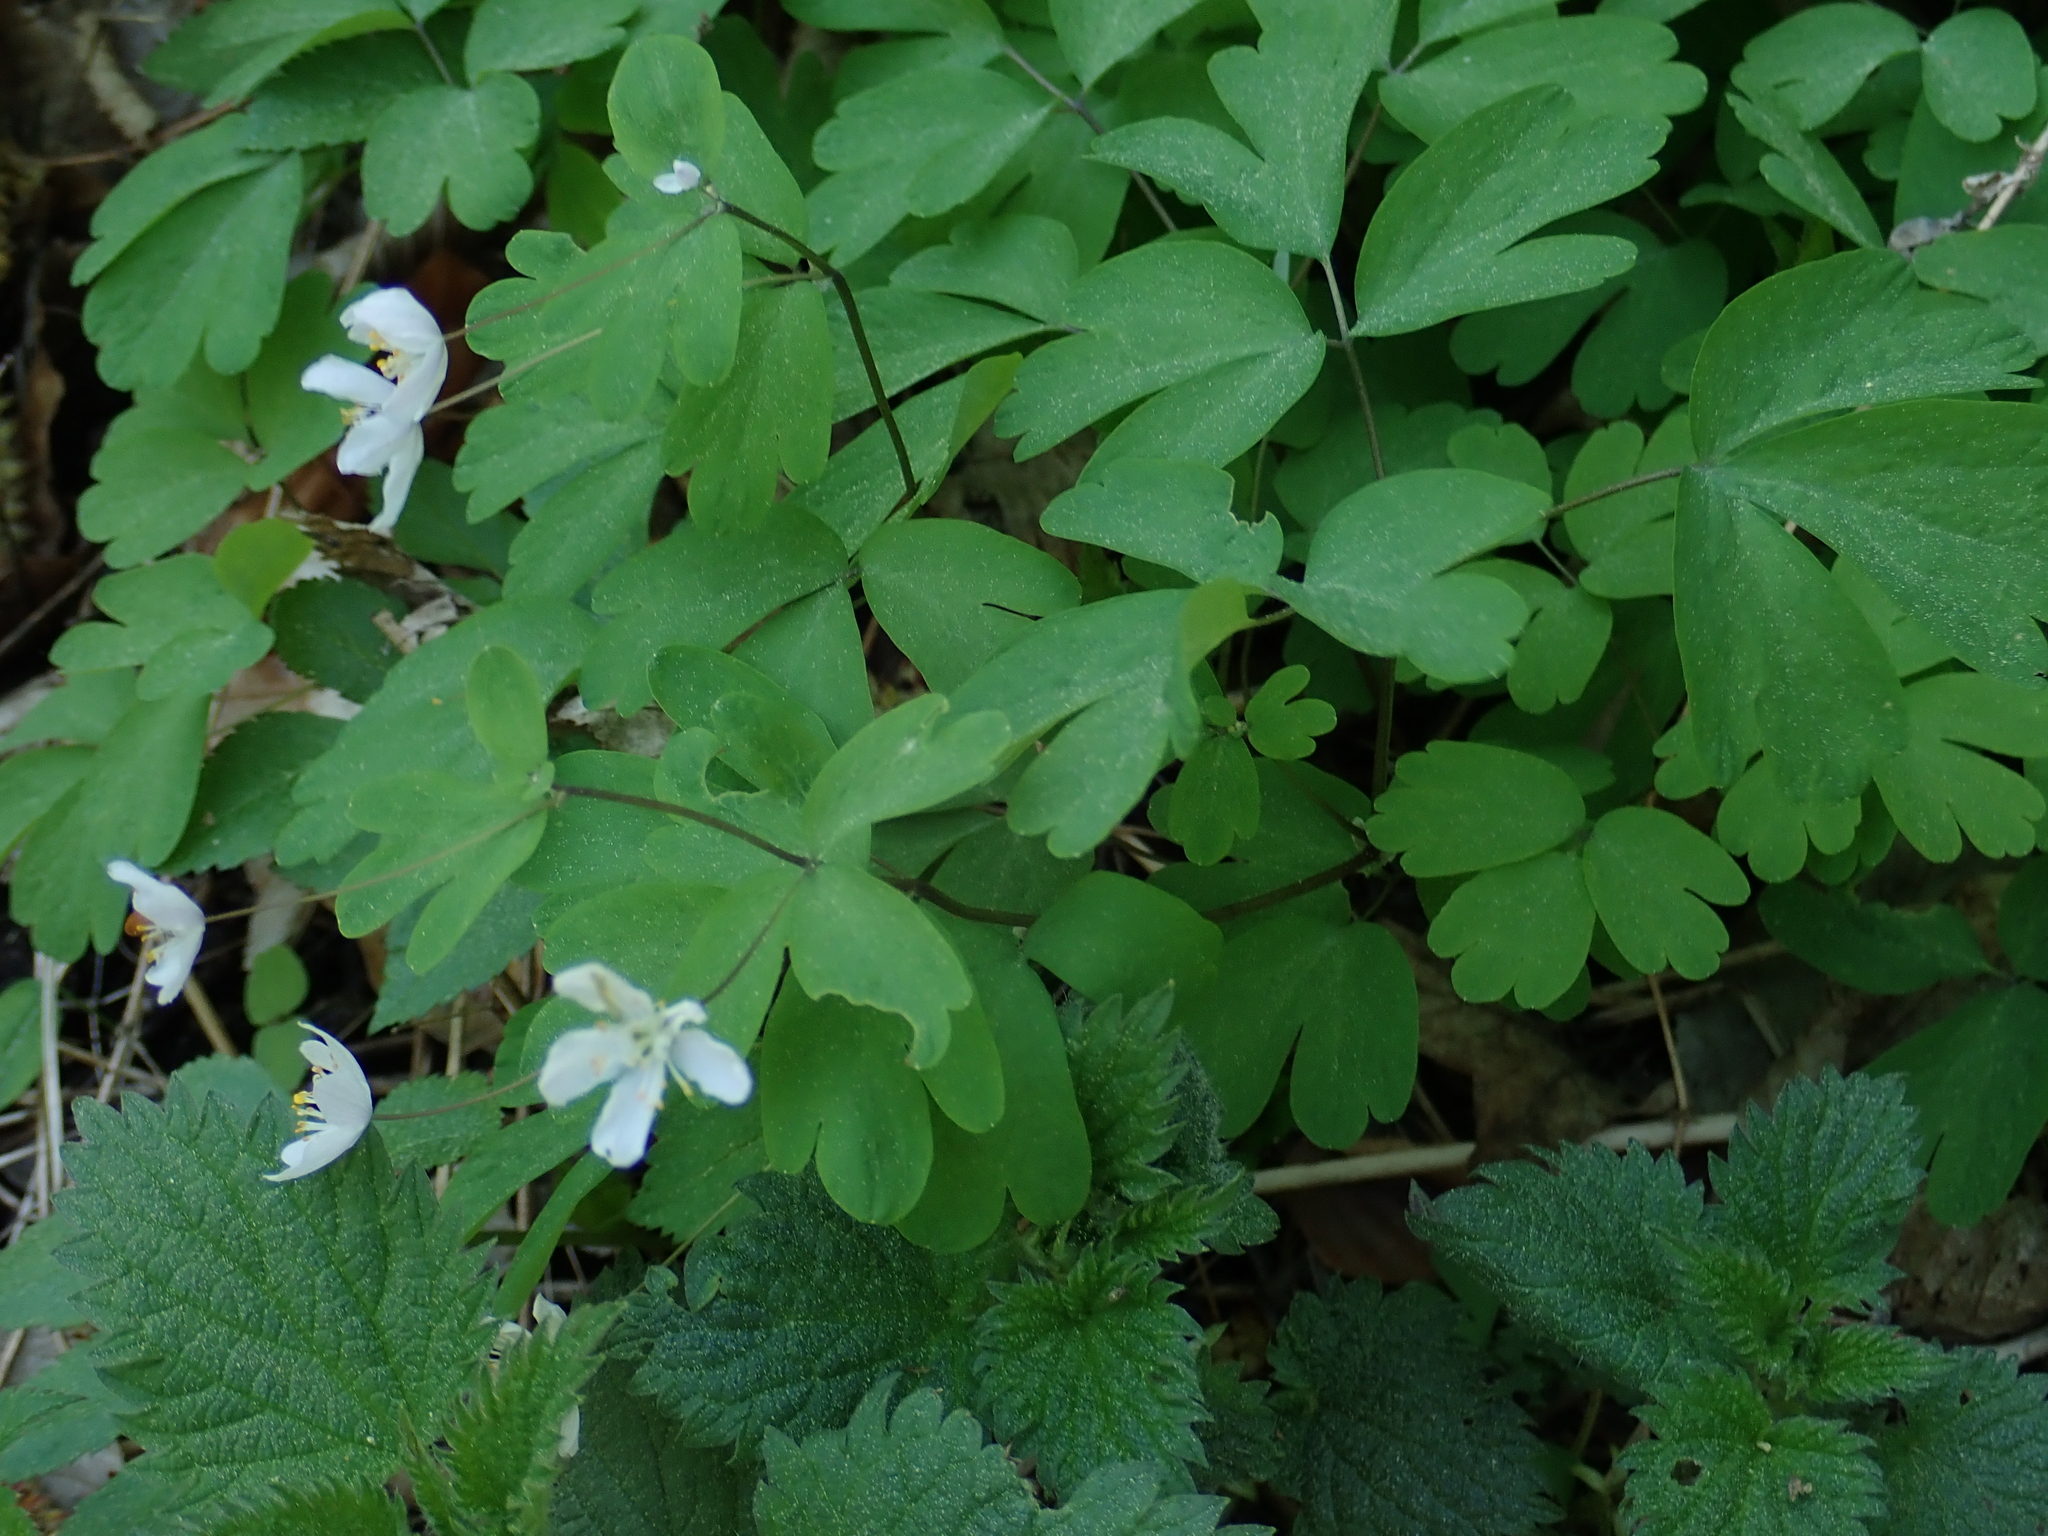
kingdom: Plantae
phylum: Tracheophyta
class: Magnoliopsida
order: Ranunculales
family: Ranunculaceae
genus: Isopyrum
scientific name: Isopyrum thalictroides
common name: Isopyrum
